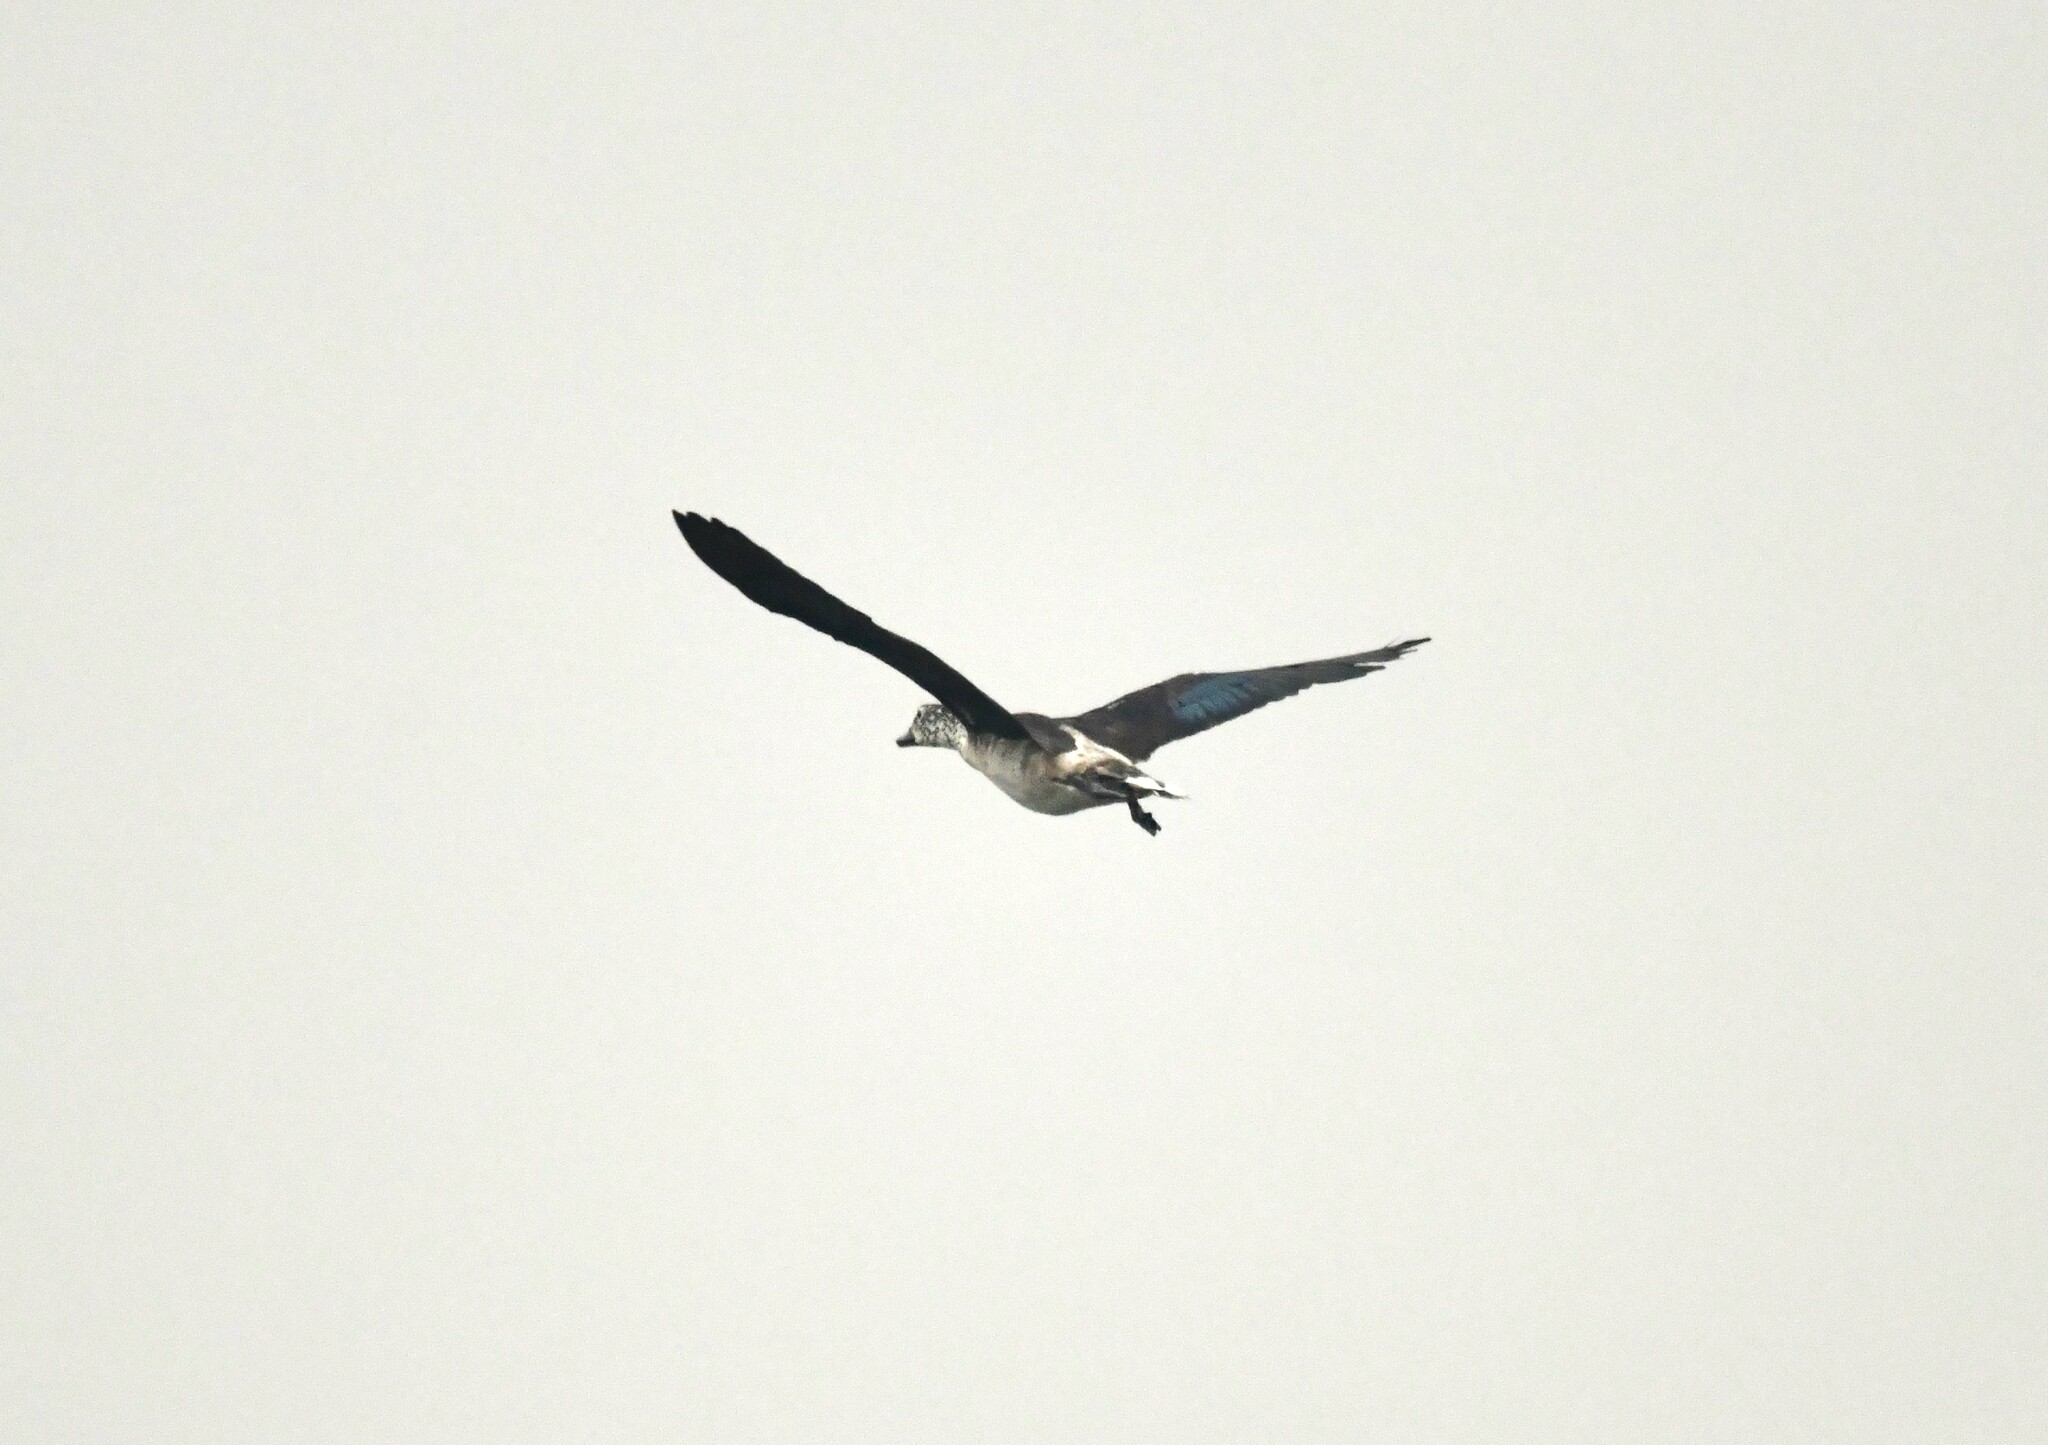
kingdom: Animalia
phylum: Chordata
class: Aves
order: Anseriformes
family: Anatidae
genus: Sarkidiornis
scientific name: Sarkidiornis melanotos
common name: Comb duck
